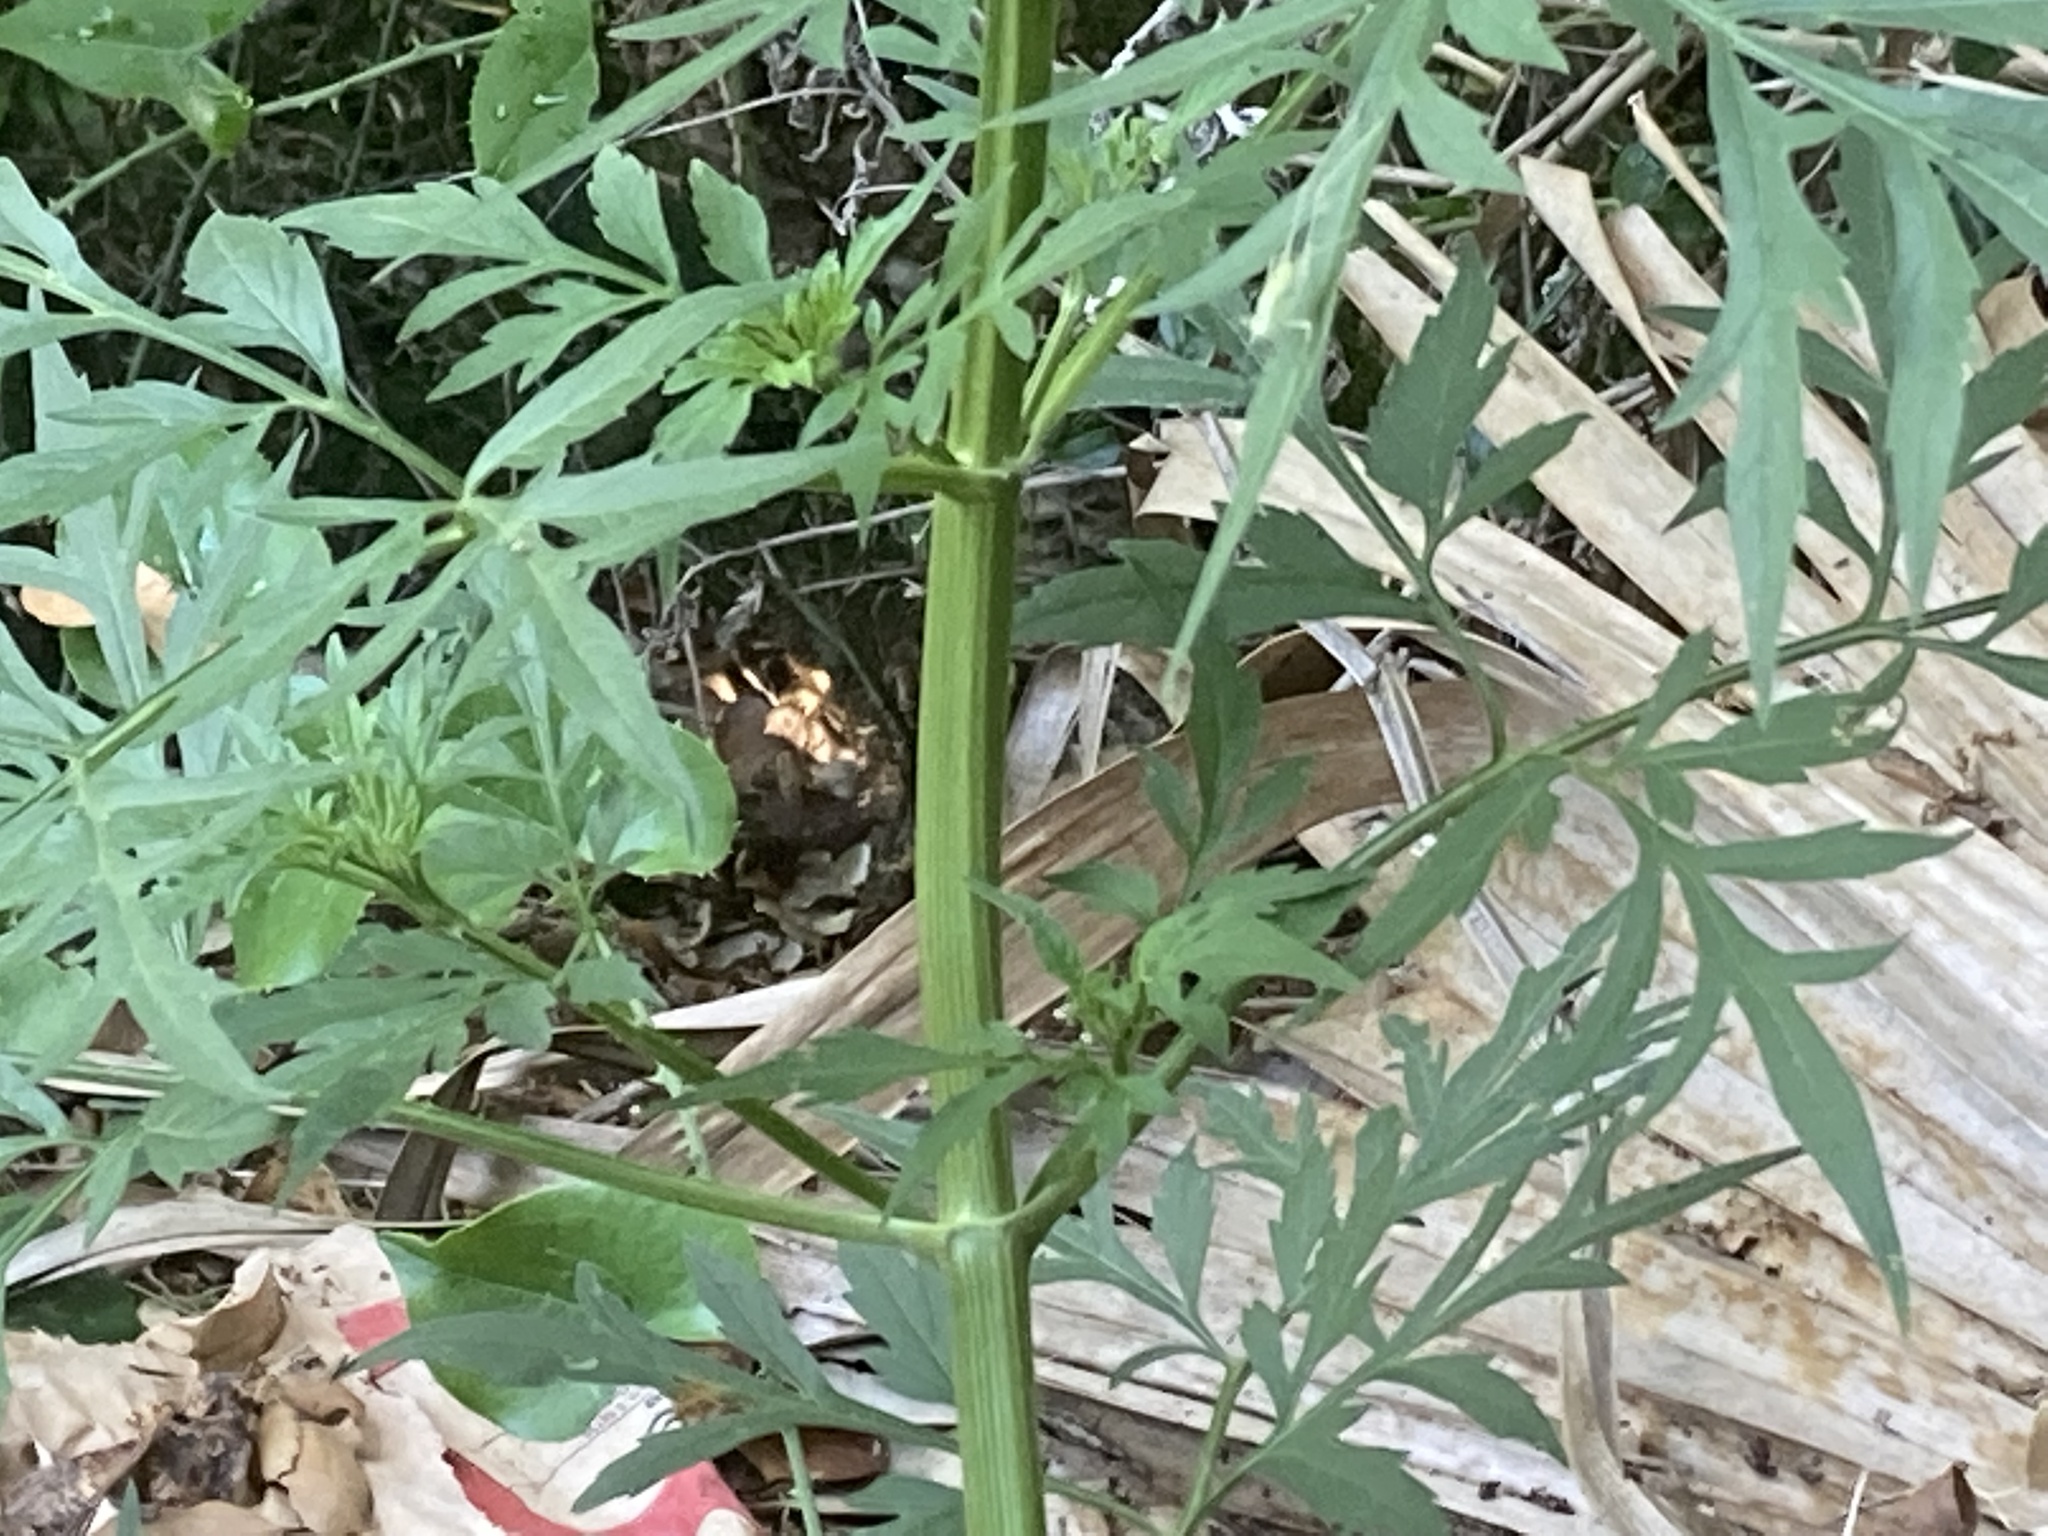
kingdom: Plantae
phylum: Tracheophyta
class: Magnoliopsida
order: Asterales
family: Asteraceae
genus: Bidens
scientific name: Bidens subalternans
